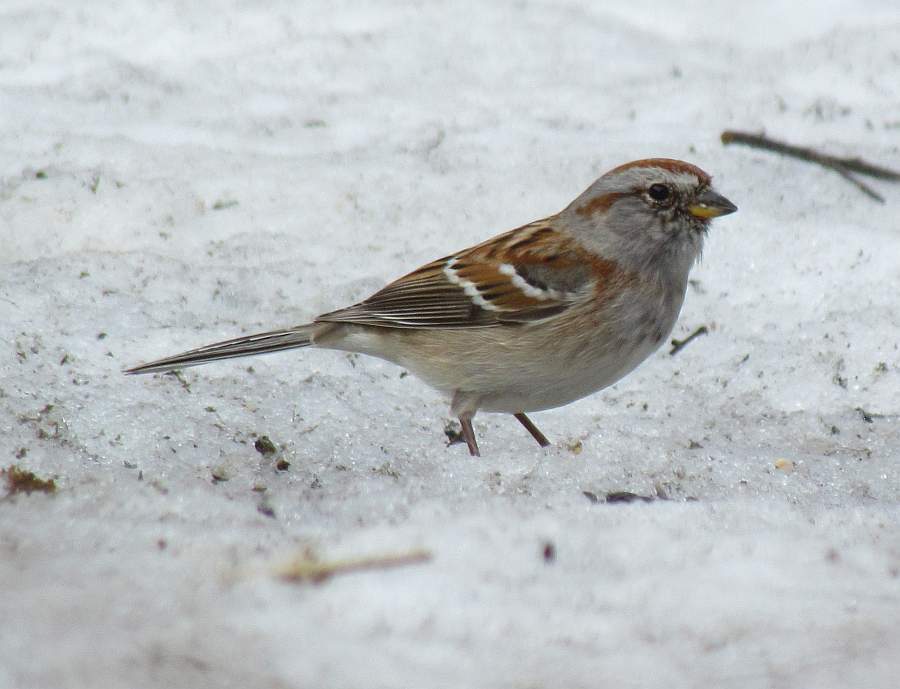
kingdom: Animalia
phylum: Chordata
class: Aves
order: Passeriformes
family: Passerellidae
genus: Spizelloides
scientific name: Spizelloides arborea
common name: American tree sparrow
